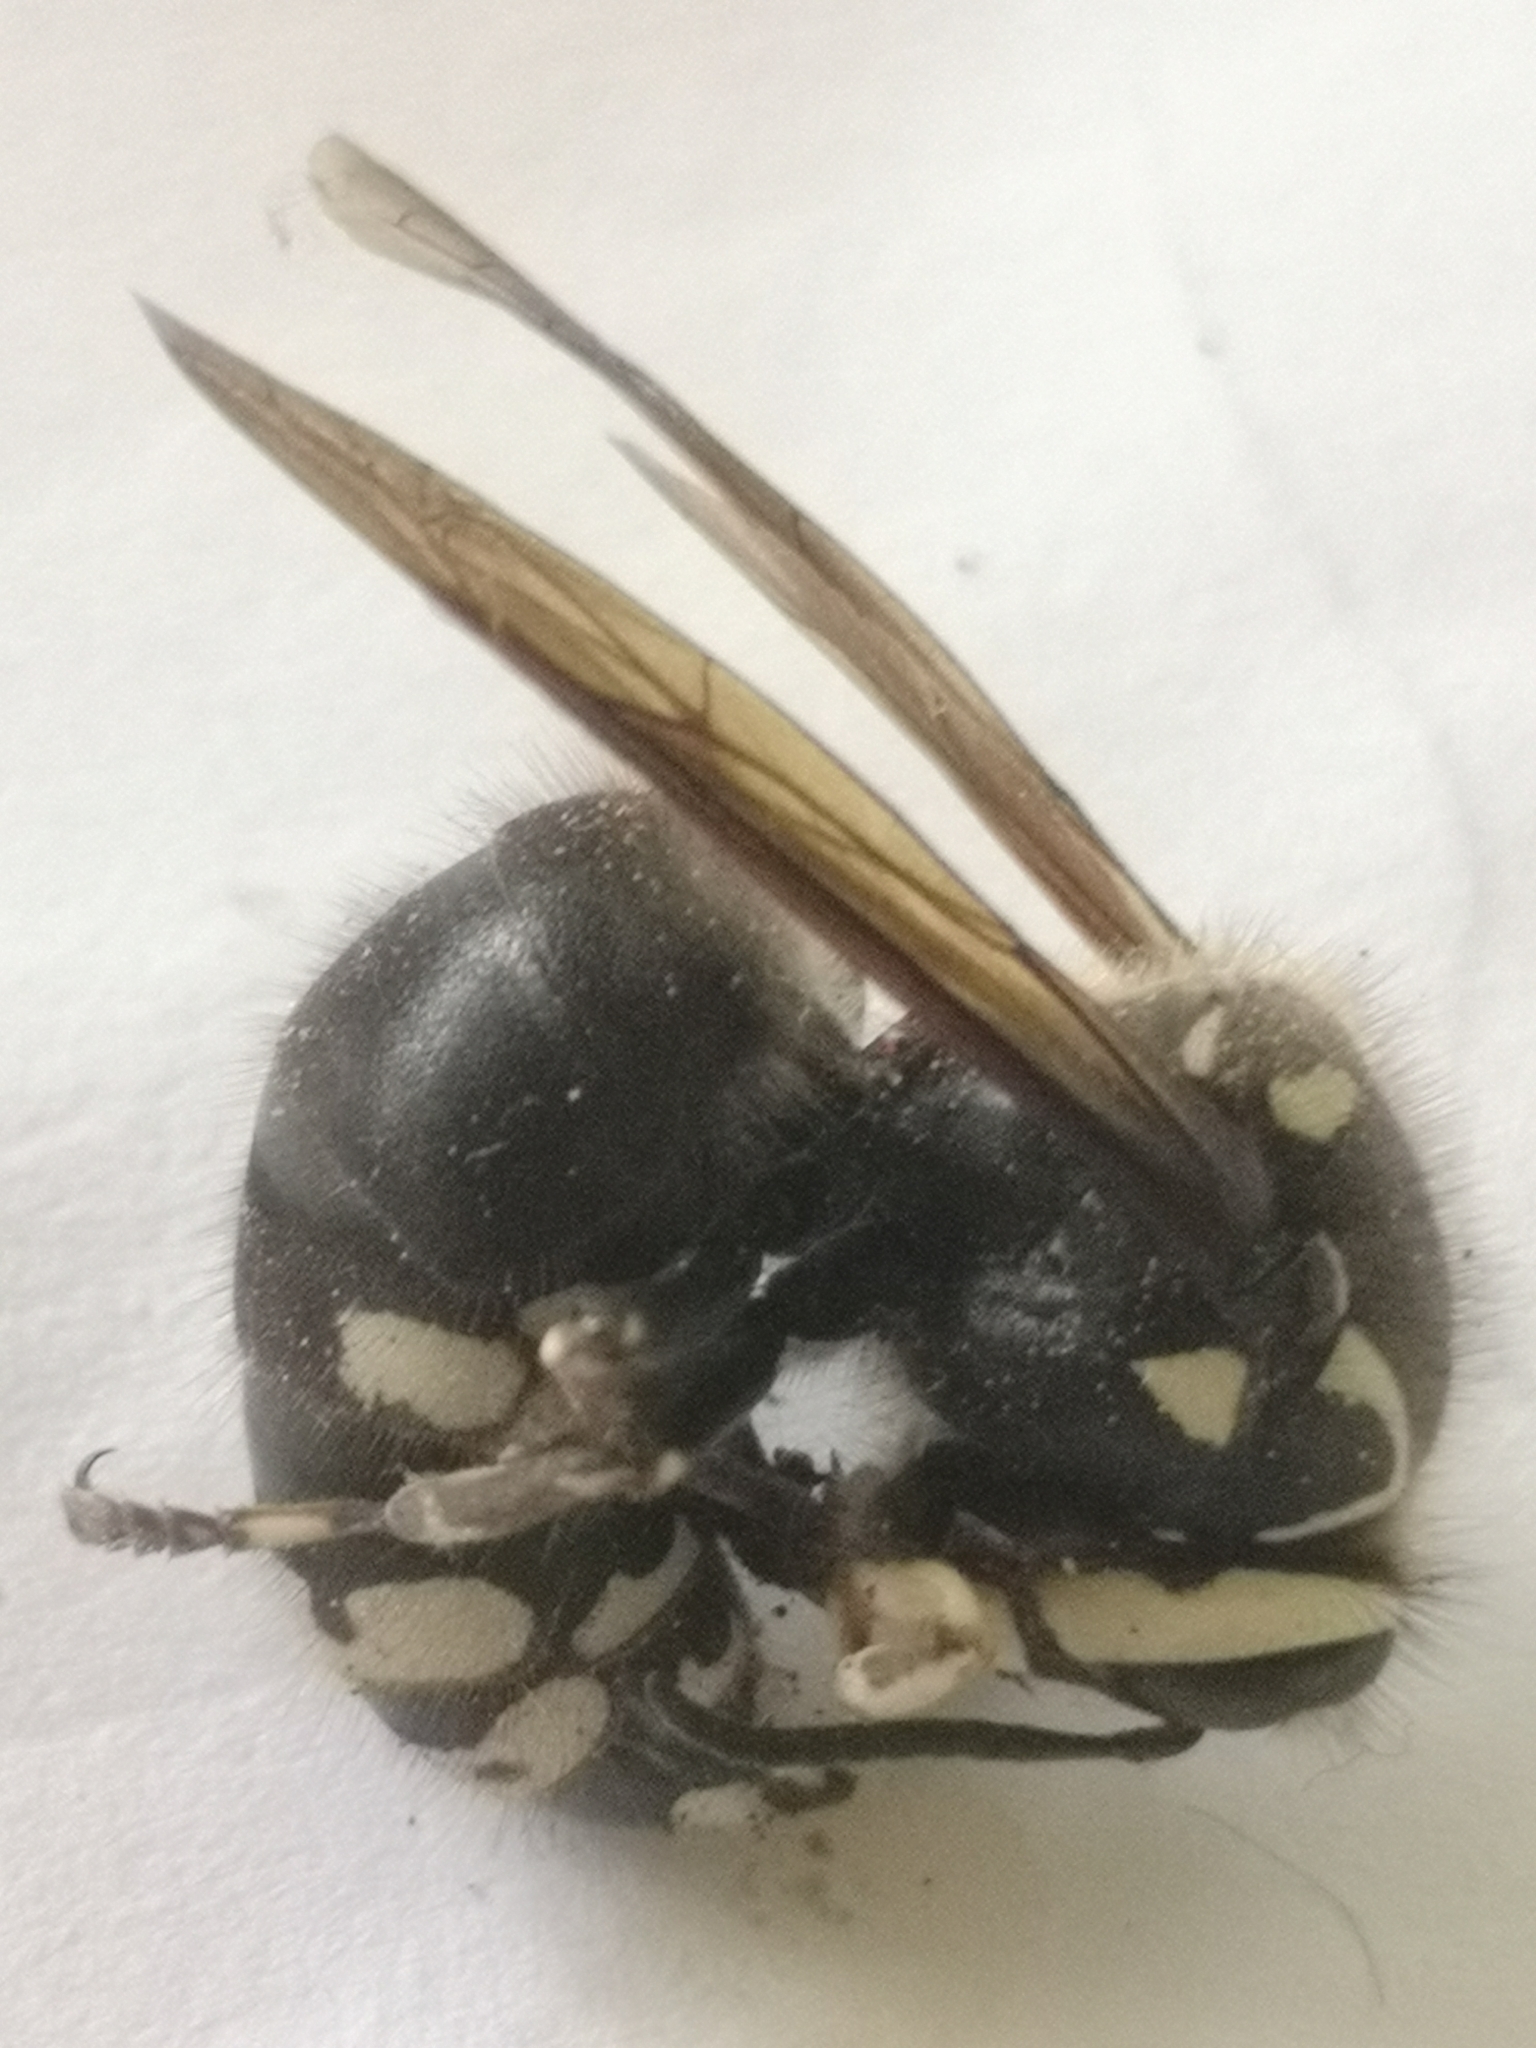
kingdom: Animalia
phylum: Arthropoda
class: Insecta
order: Hymenoptera
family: Vespidae
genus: Dolichovespula
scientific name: Dolichovespula maculata
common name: Bald-faced hornet
